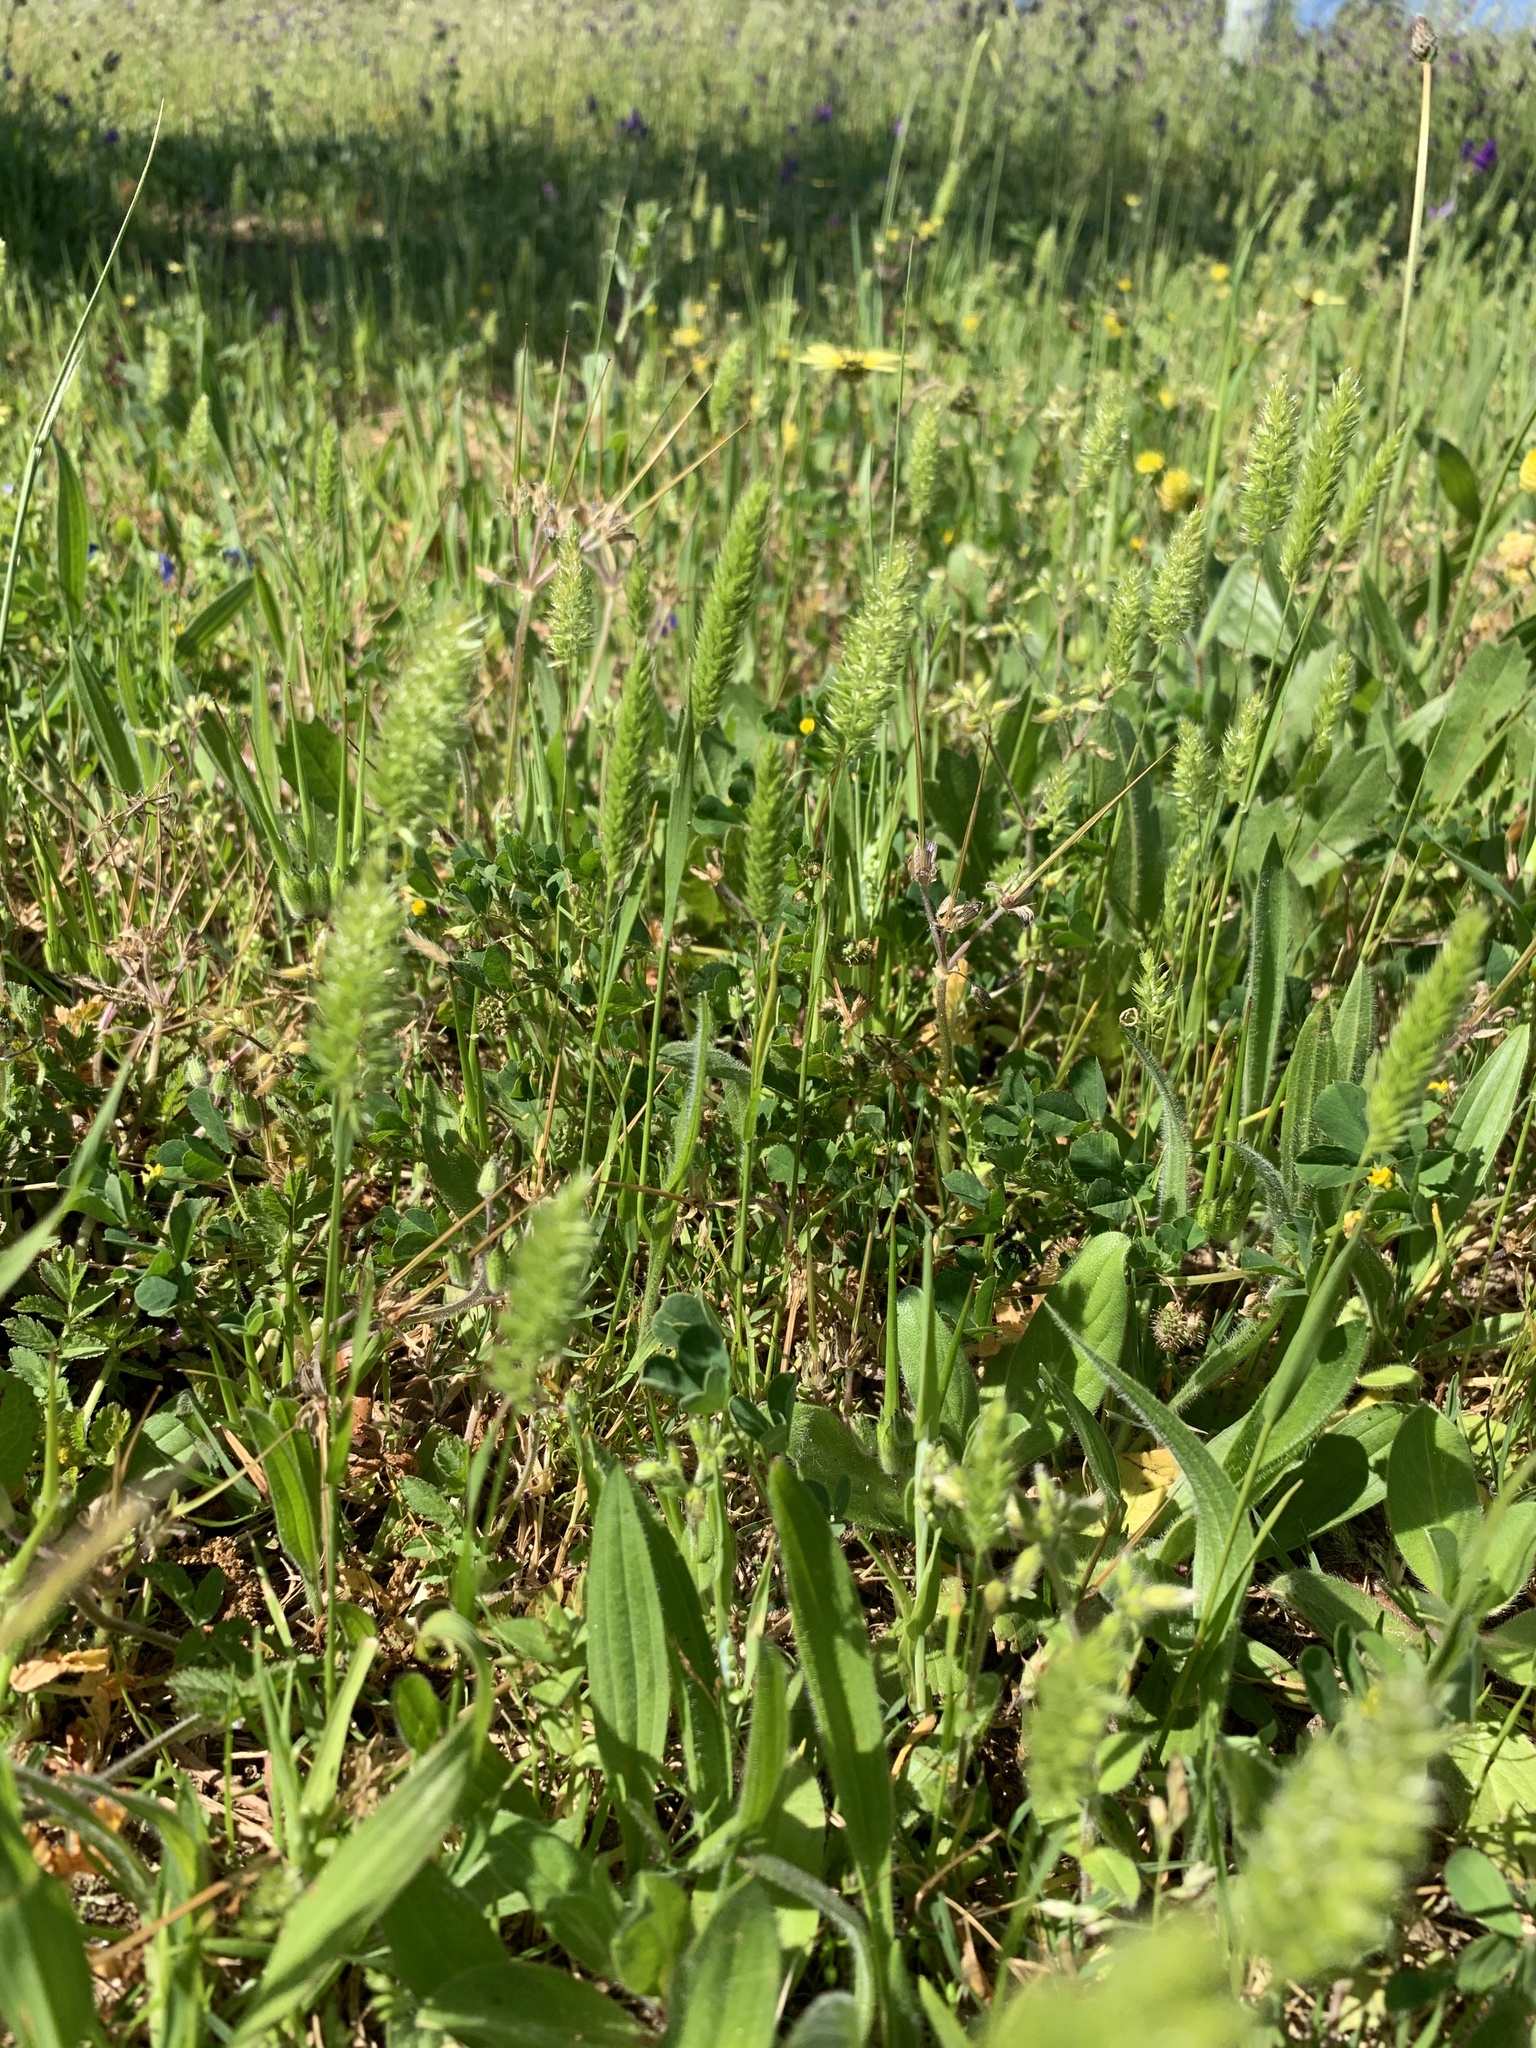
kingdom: Plantae
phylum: Tracheophyta
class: Liliopsida
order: Poales
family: Poaceae
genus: Rostraria
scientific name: Rostraria cristata
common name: Mediterranean hair-grass
